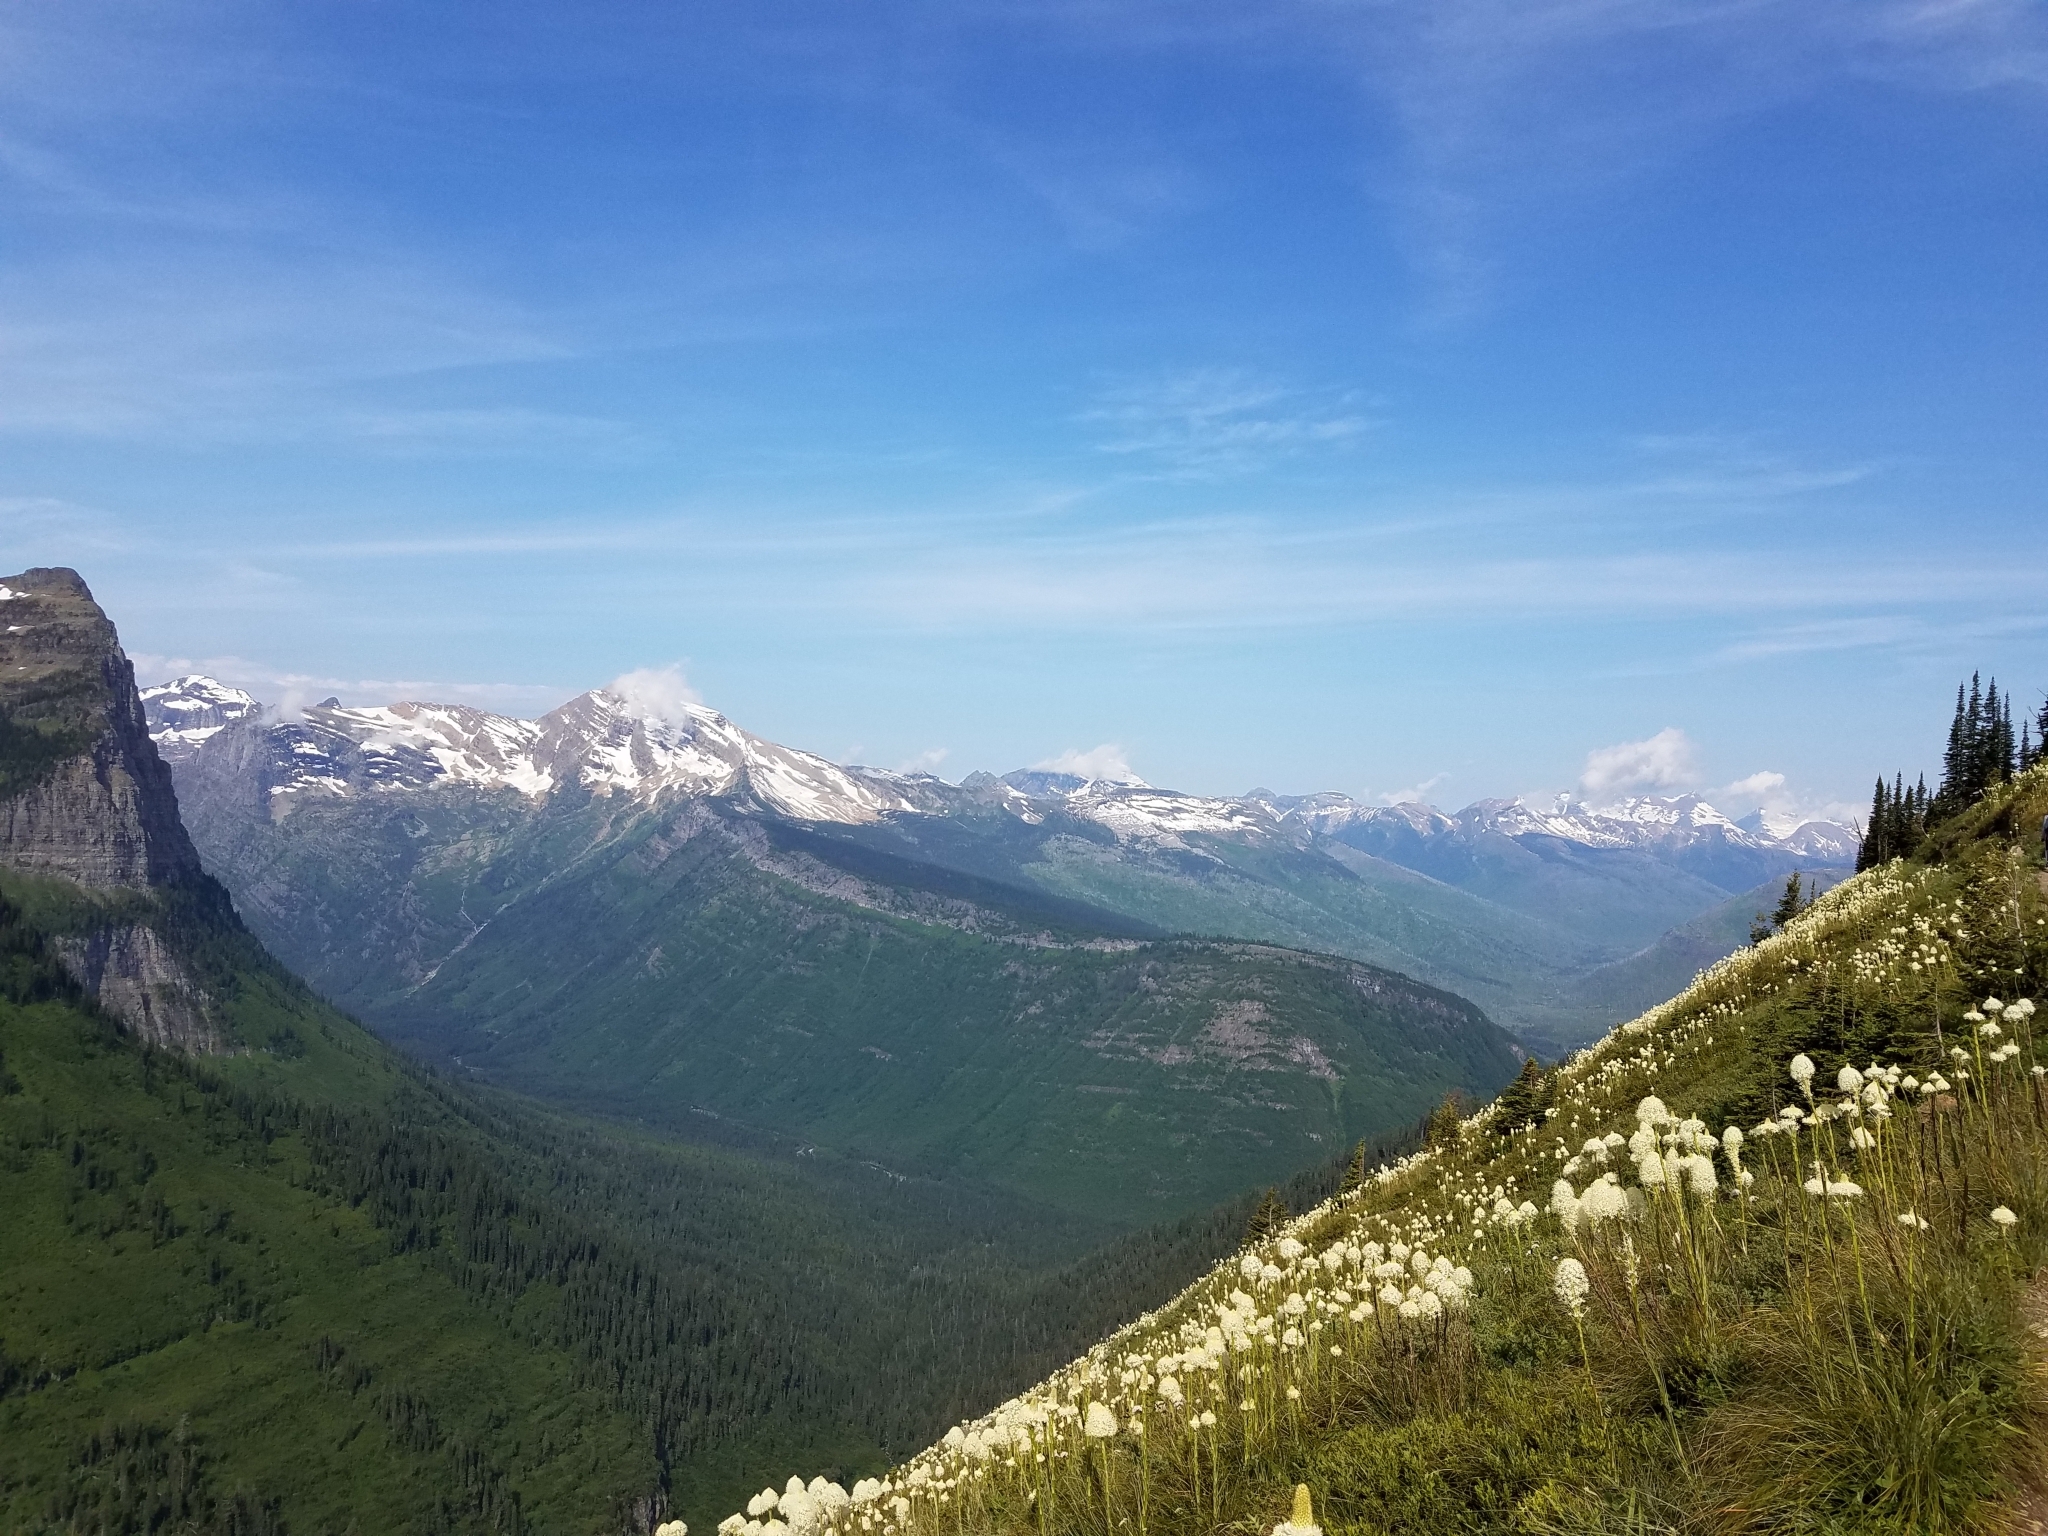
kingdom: Plantae
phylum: Tracheophyta
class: Liliopsida
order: Liliales
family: Melanthiaceae
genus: Xerophyllum
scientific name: Xerophyllum tenax
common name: Bear-grass
